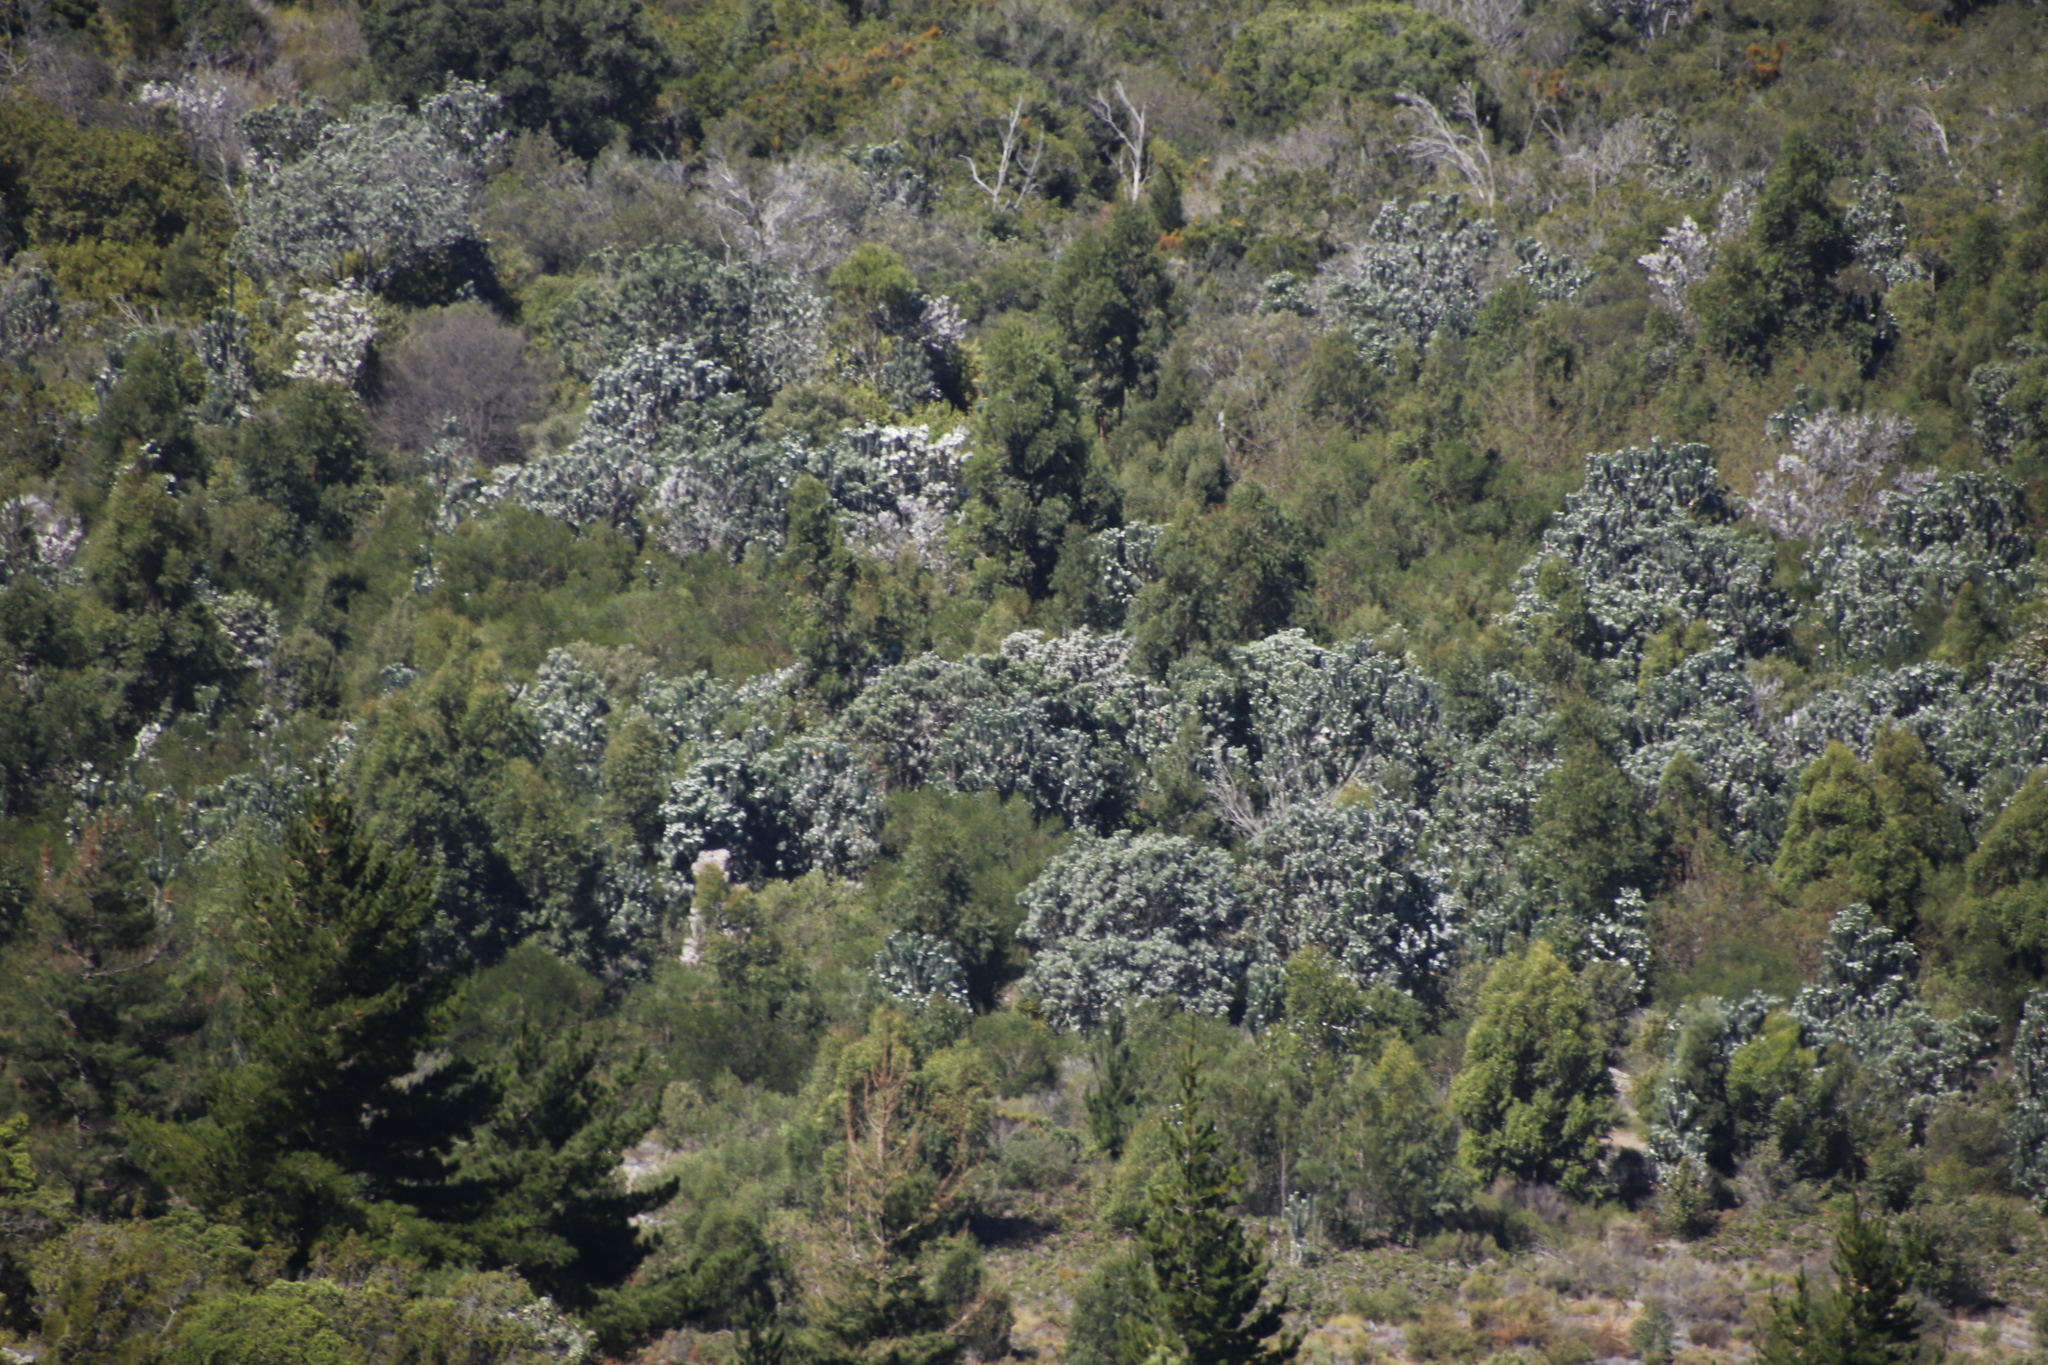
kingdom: Plantae
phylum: Tracheophyta
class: Magnoliopsida
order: Proteales
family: Proteaceae
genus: Leucadendron
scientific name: Leucadendron argenteum
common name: Cape silver tree
